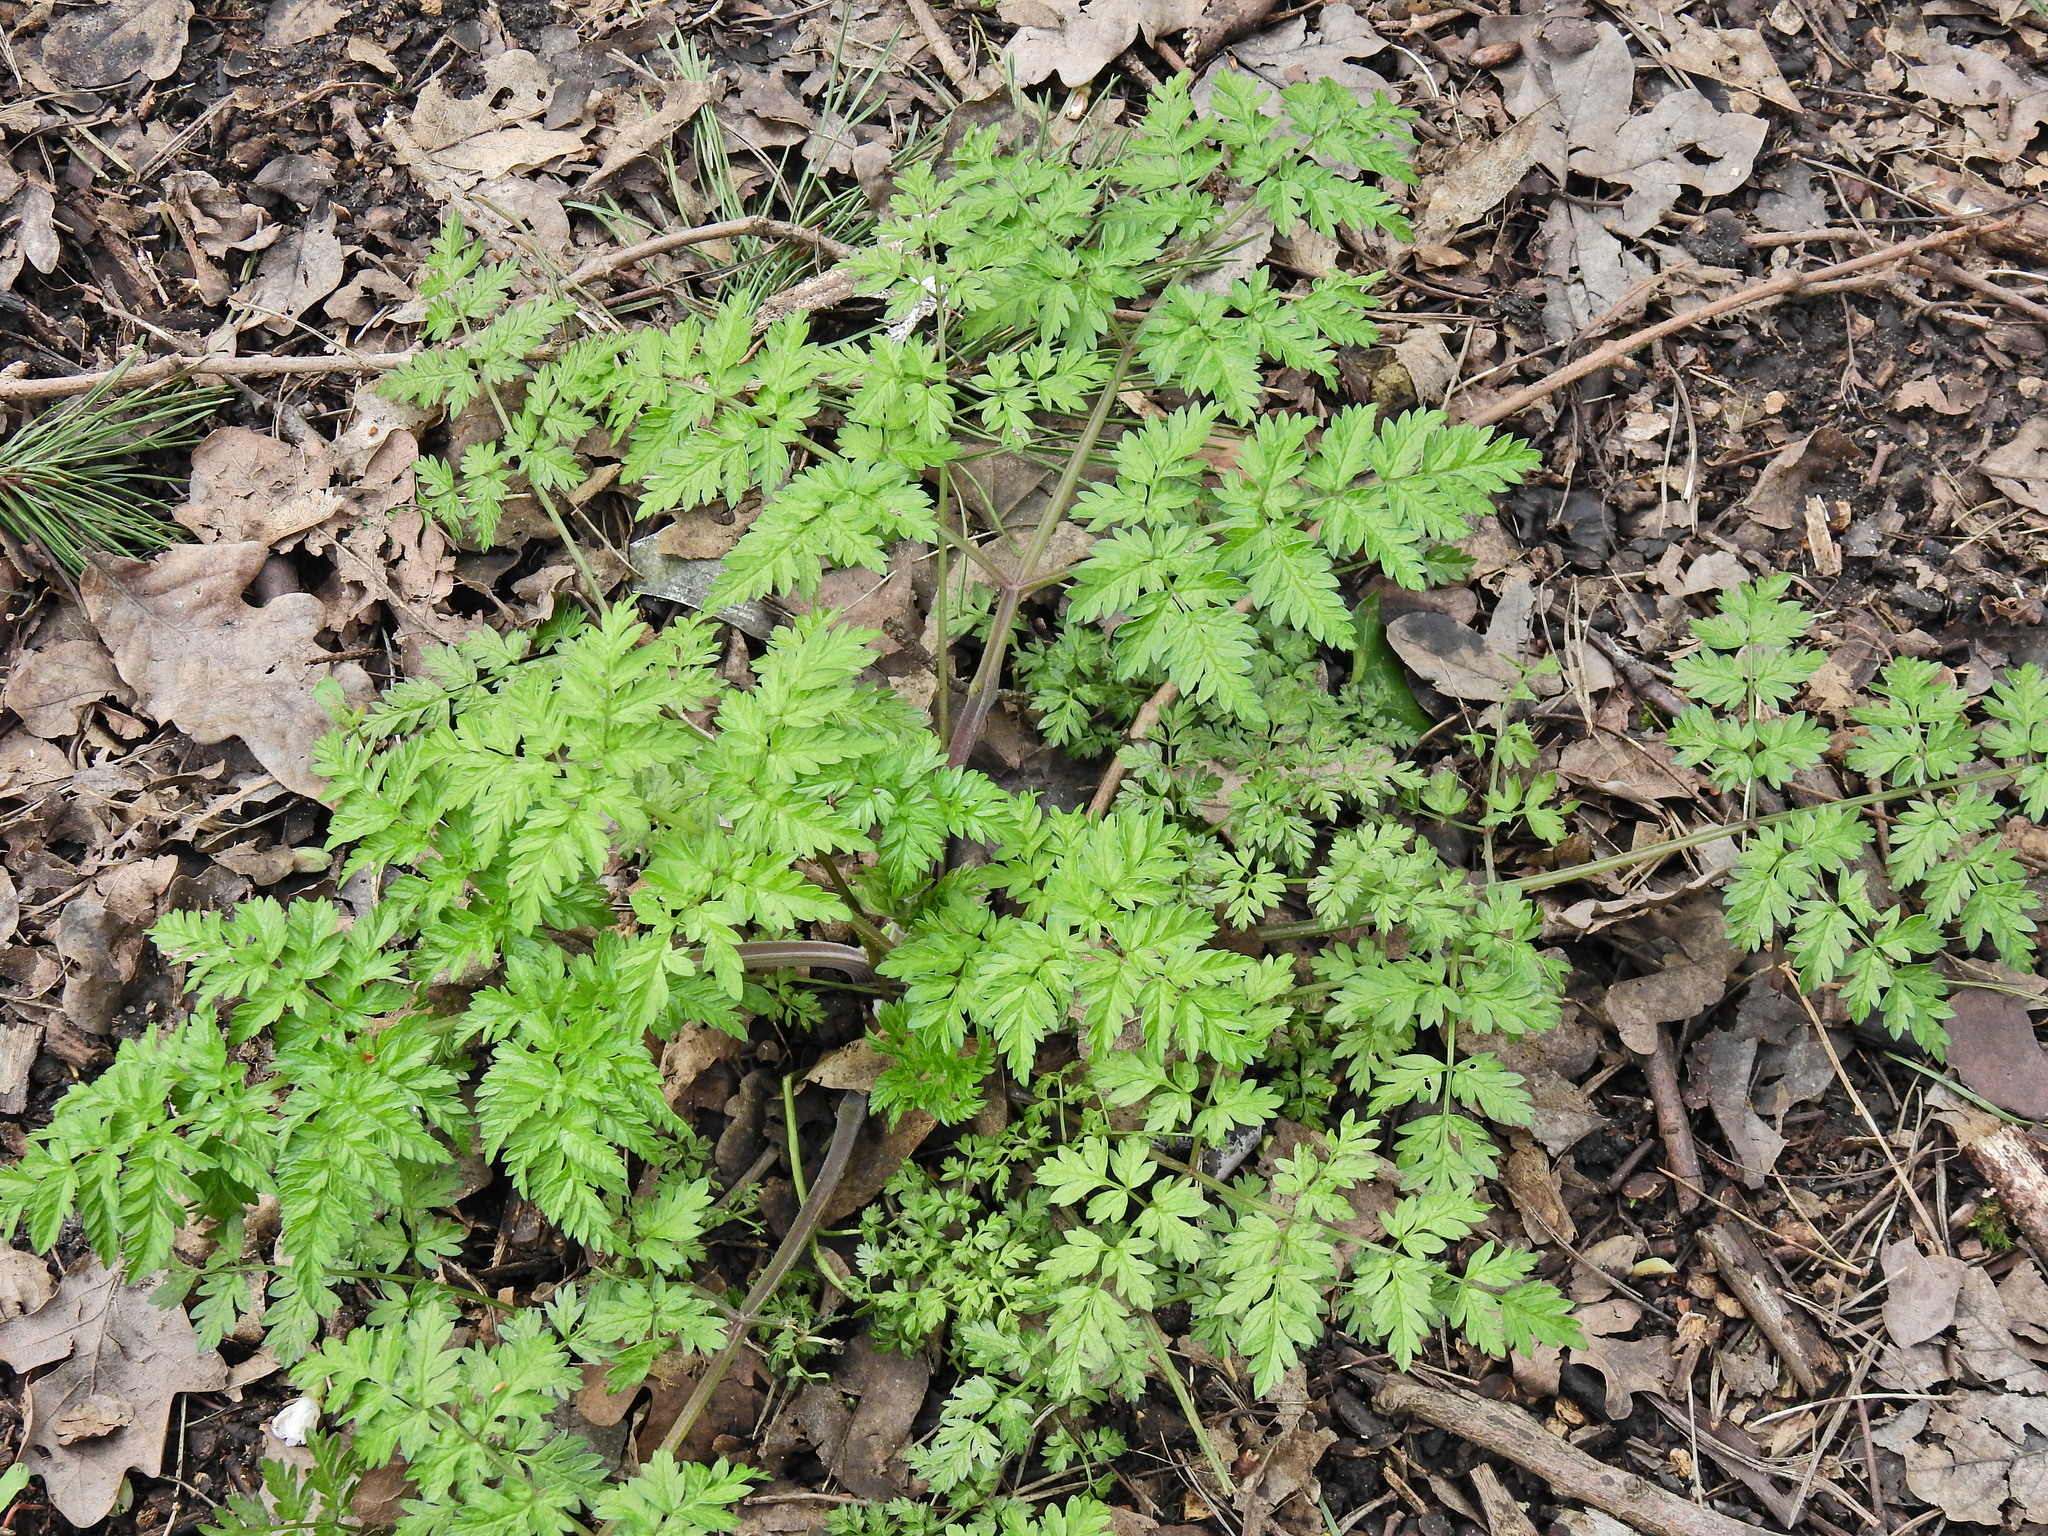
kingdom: Plantae
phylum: Tracheophyta
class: Magnoliopsida
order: Apiales
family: Apiaceae
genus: Anthriscus
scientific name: Anthriscus sylvestris
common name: Cow parsley
